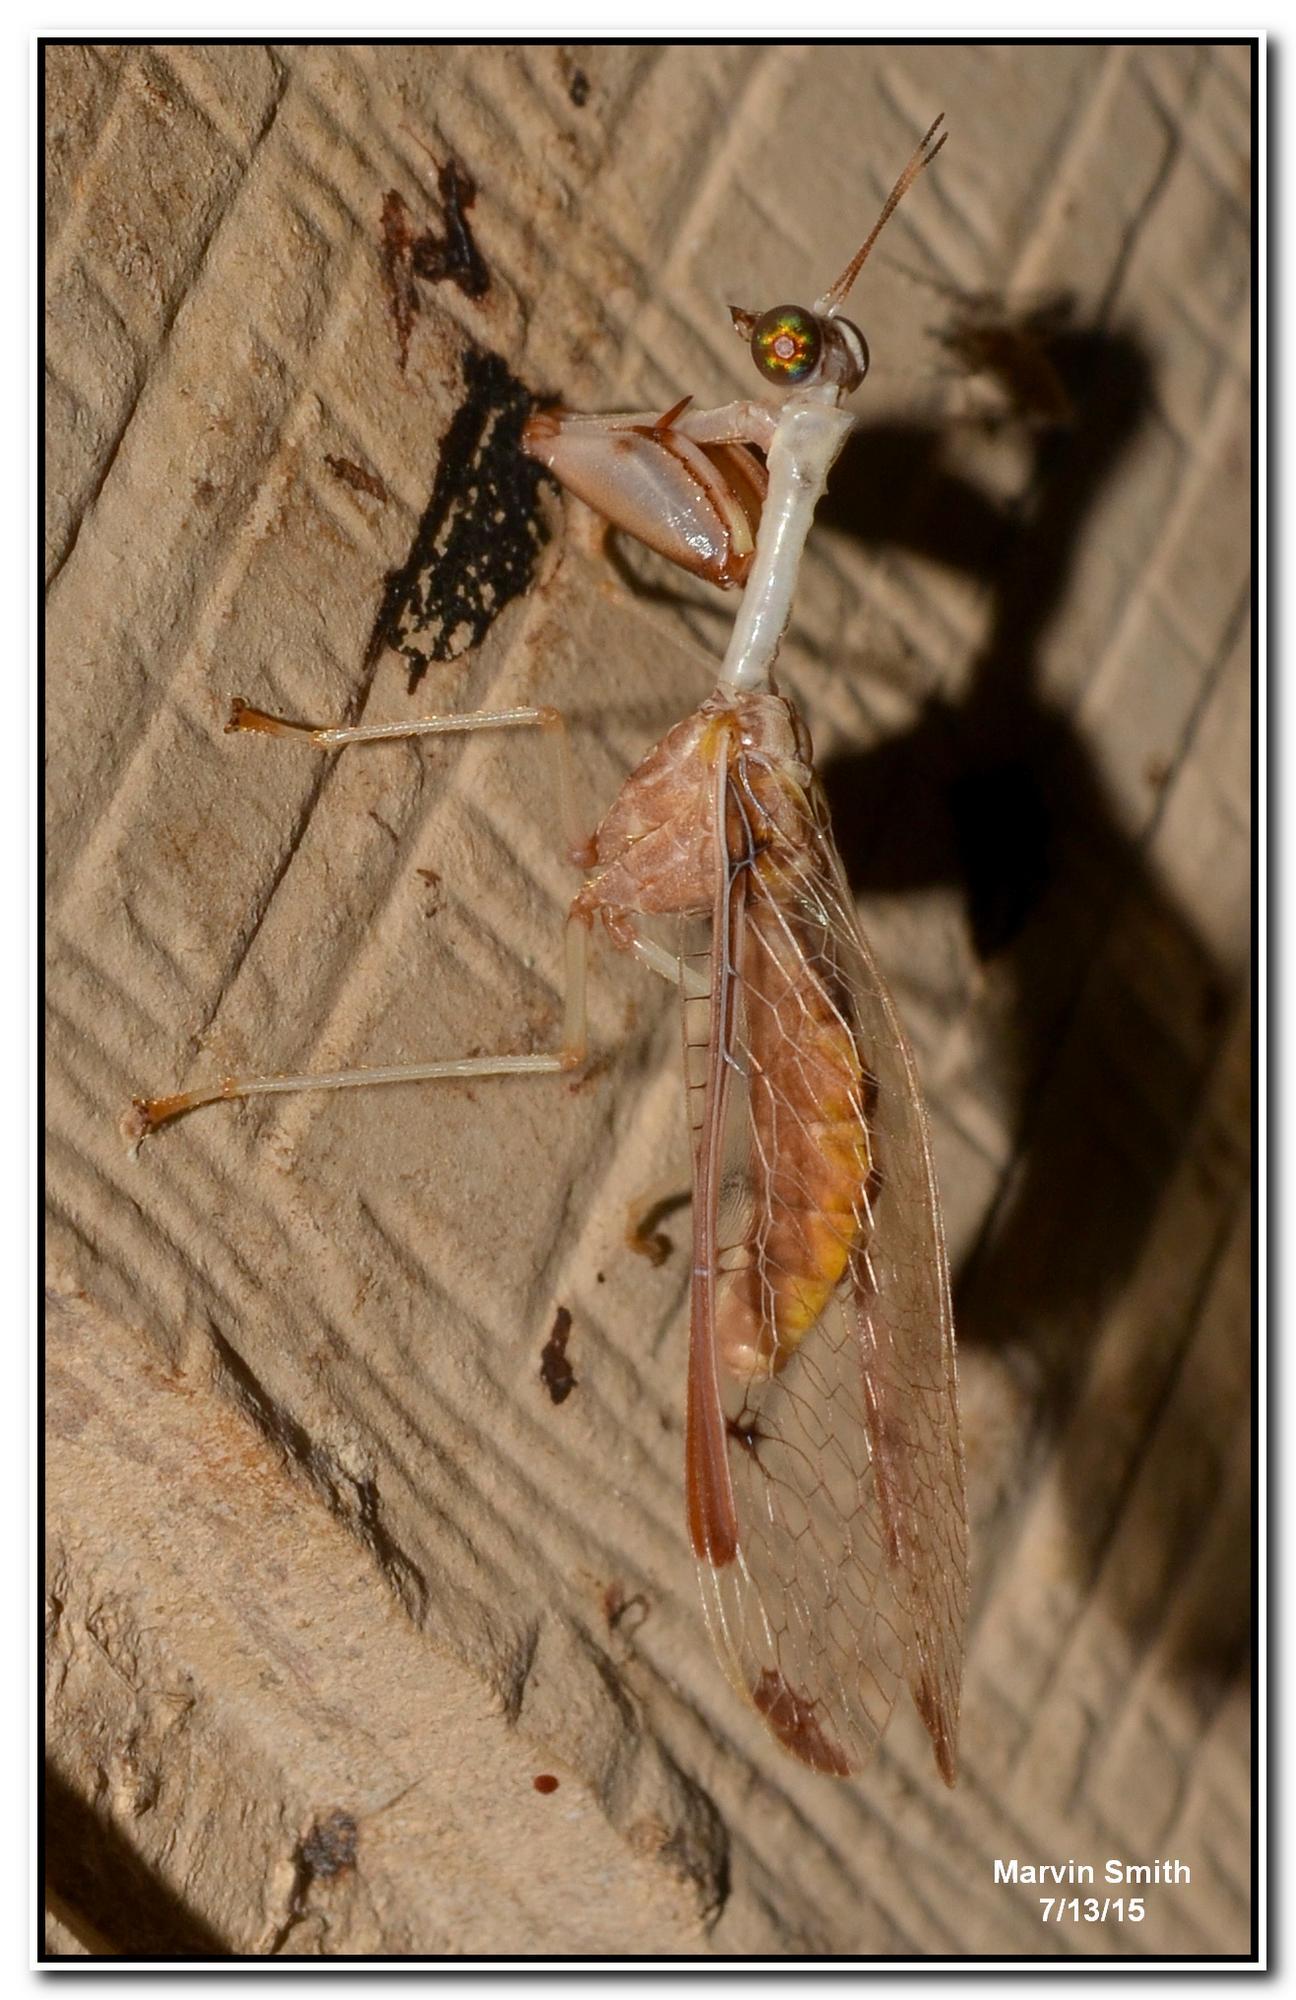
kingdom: Animalia
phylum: Arthropoda
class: Insecta
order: Neuroptera
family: Mantispidae
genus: Dicromantispa
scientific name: Dicromantispa interrupta
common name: Four-spotted mantidfly
